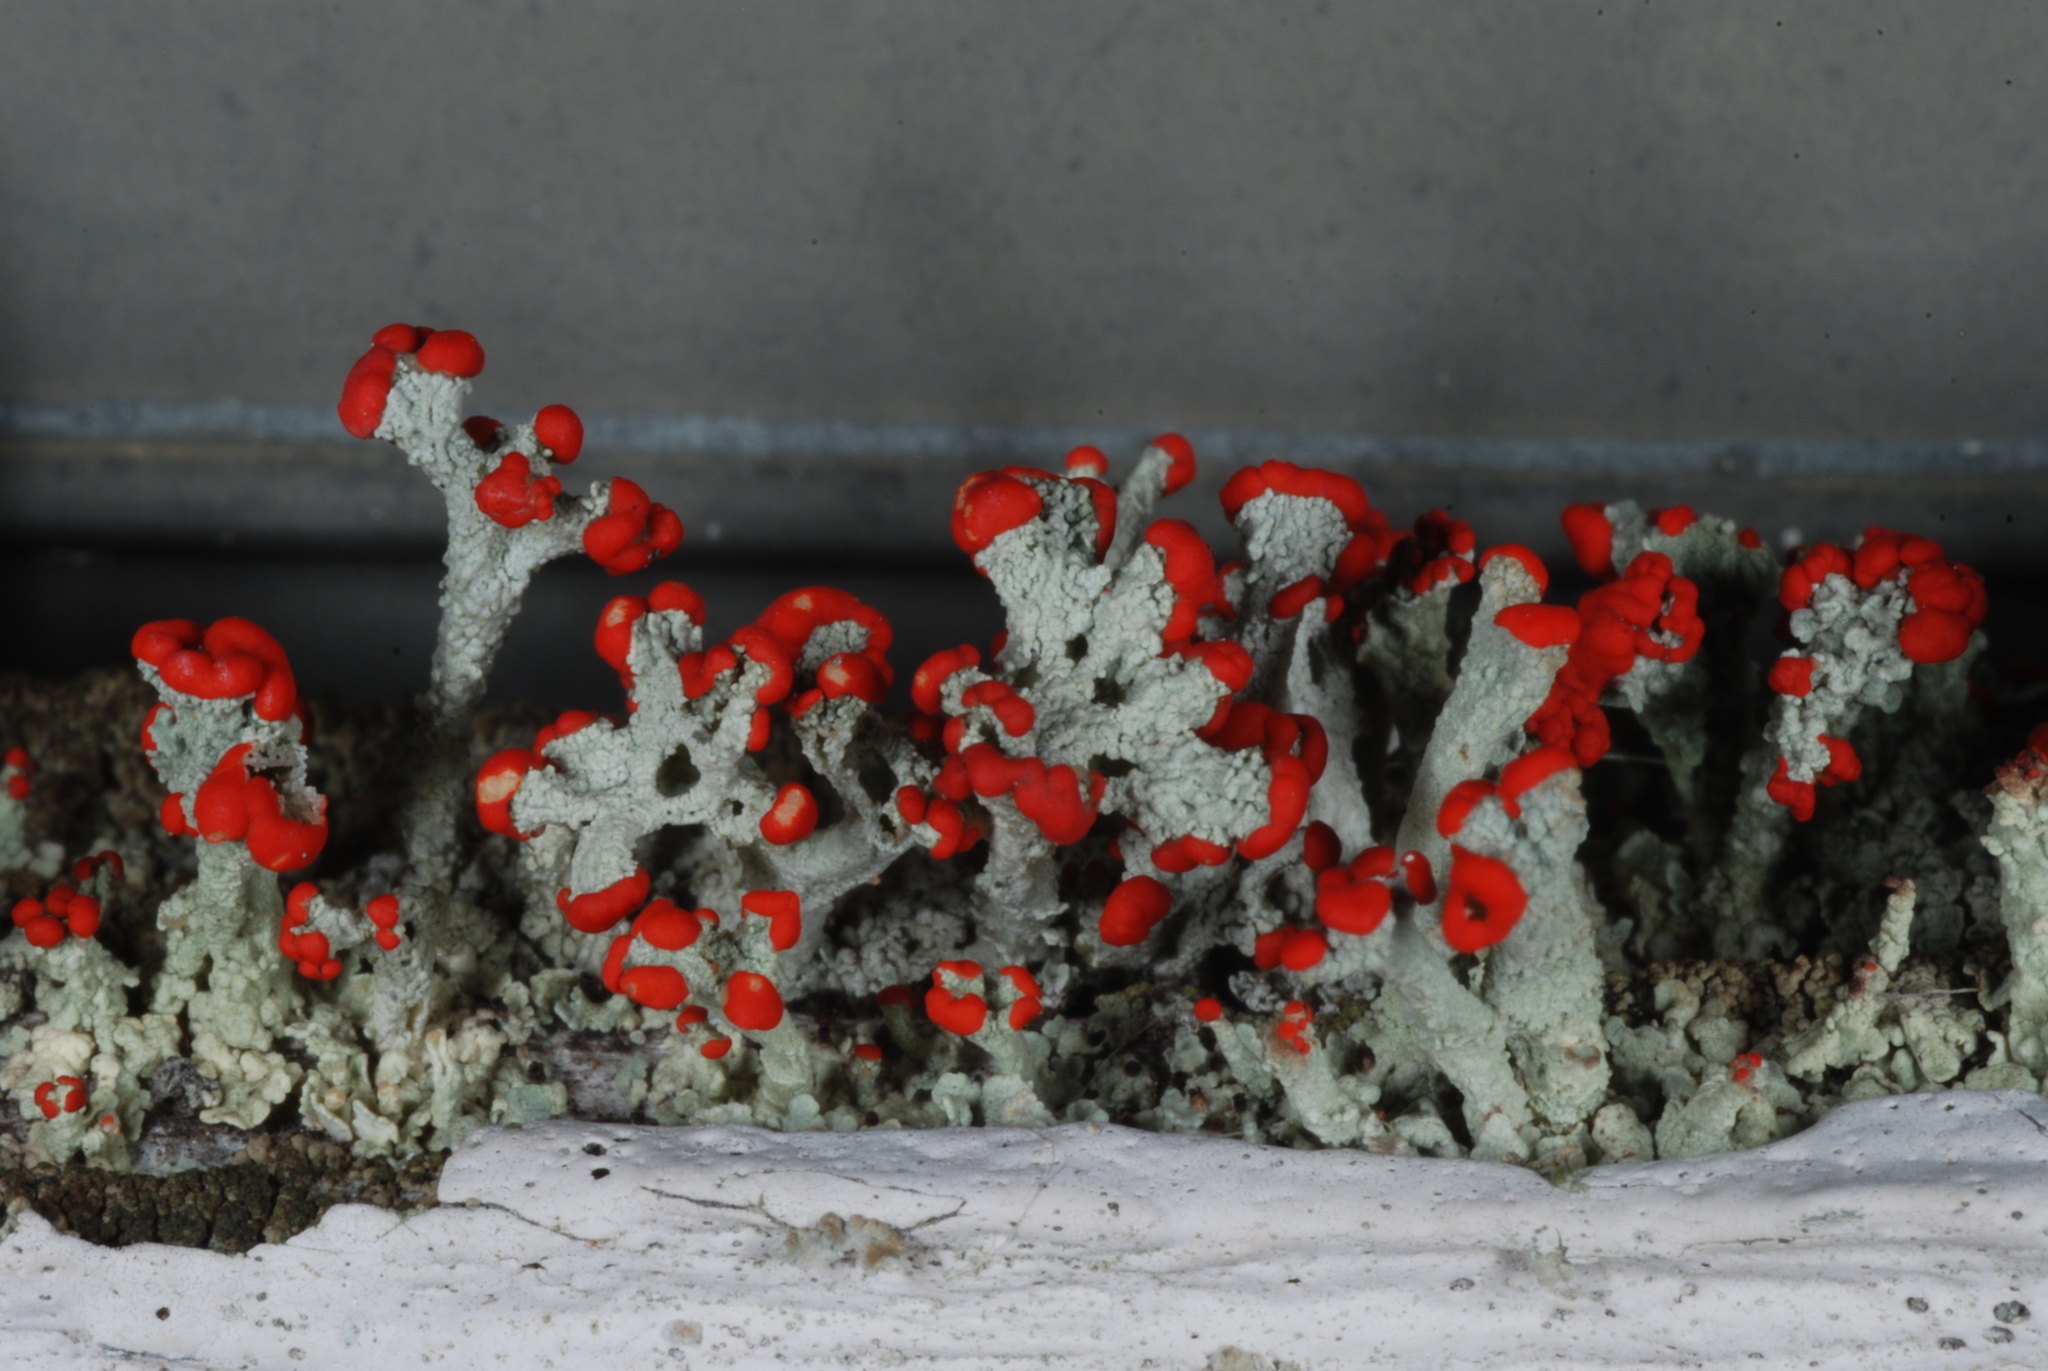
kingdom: Fungi
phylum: Ascomycota
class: Lecanoromycetes
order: Lecanorales
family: Cladoniaceae
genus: Cladonia
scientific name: Cladonia cristatella
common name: British soldier lichen
